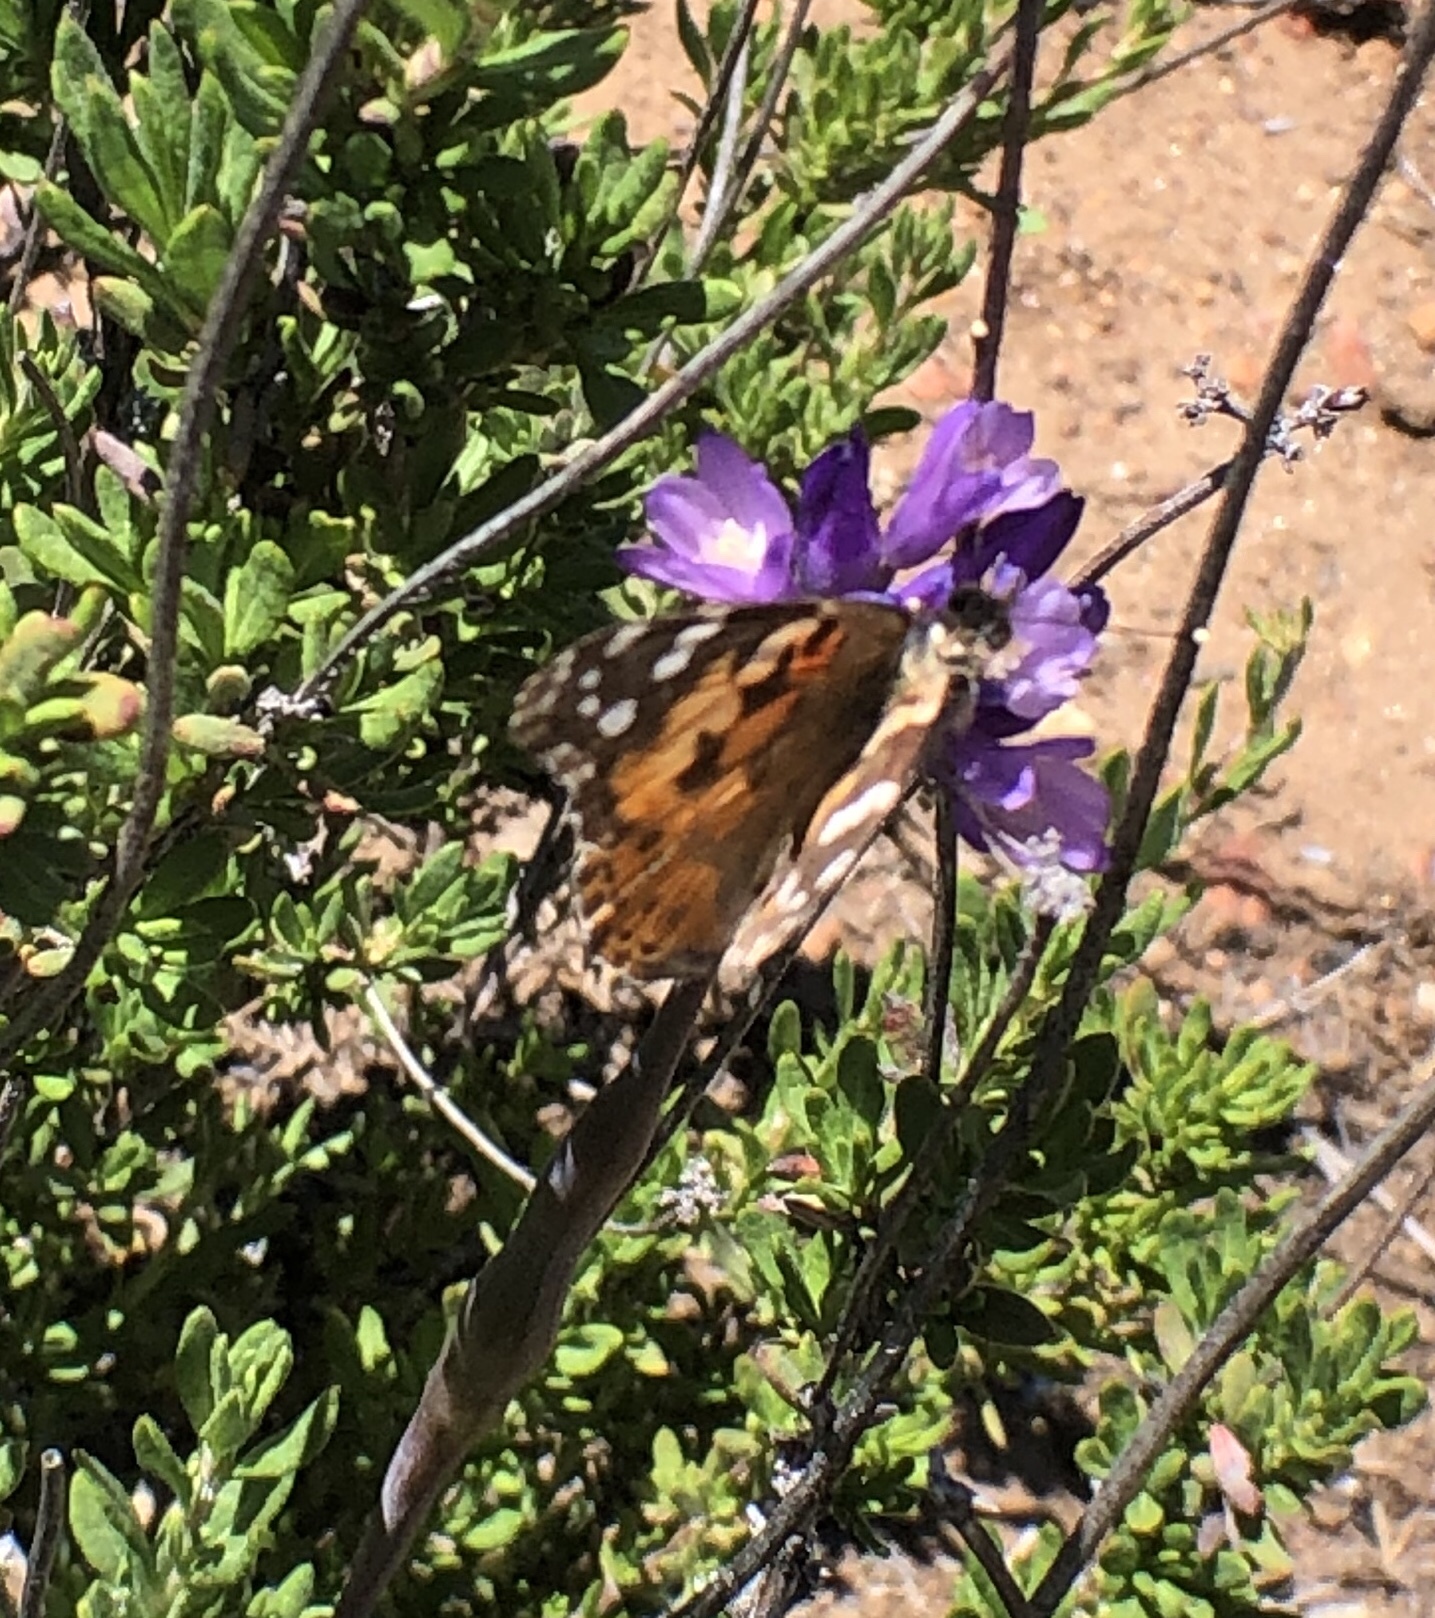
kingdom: Animalia
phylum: Arthropoda
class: Insecta
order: Lepidoptera
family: Nymphalidae
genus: Vanessa
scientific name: Vanessa cardui
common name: Painted lady
